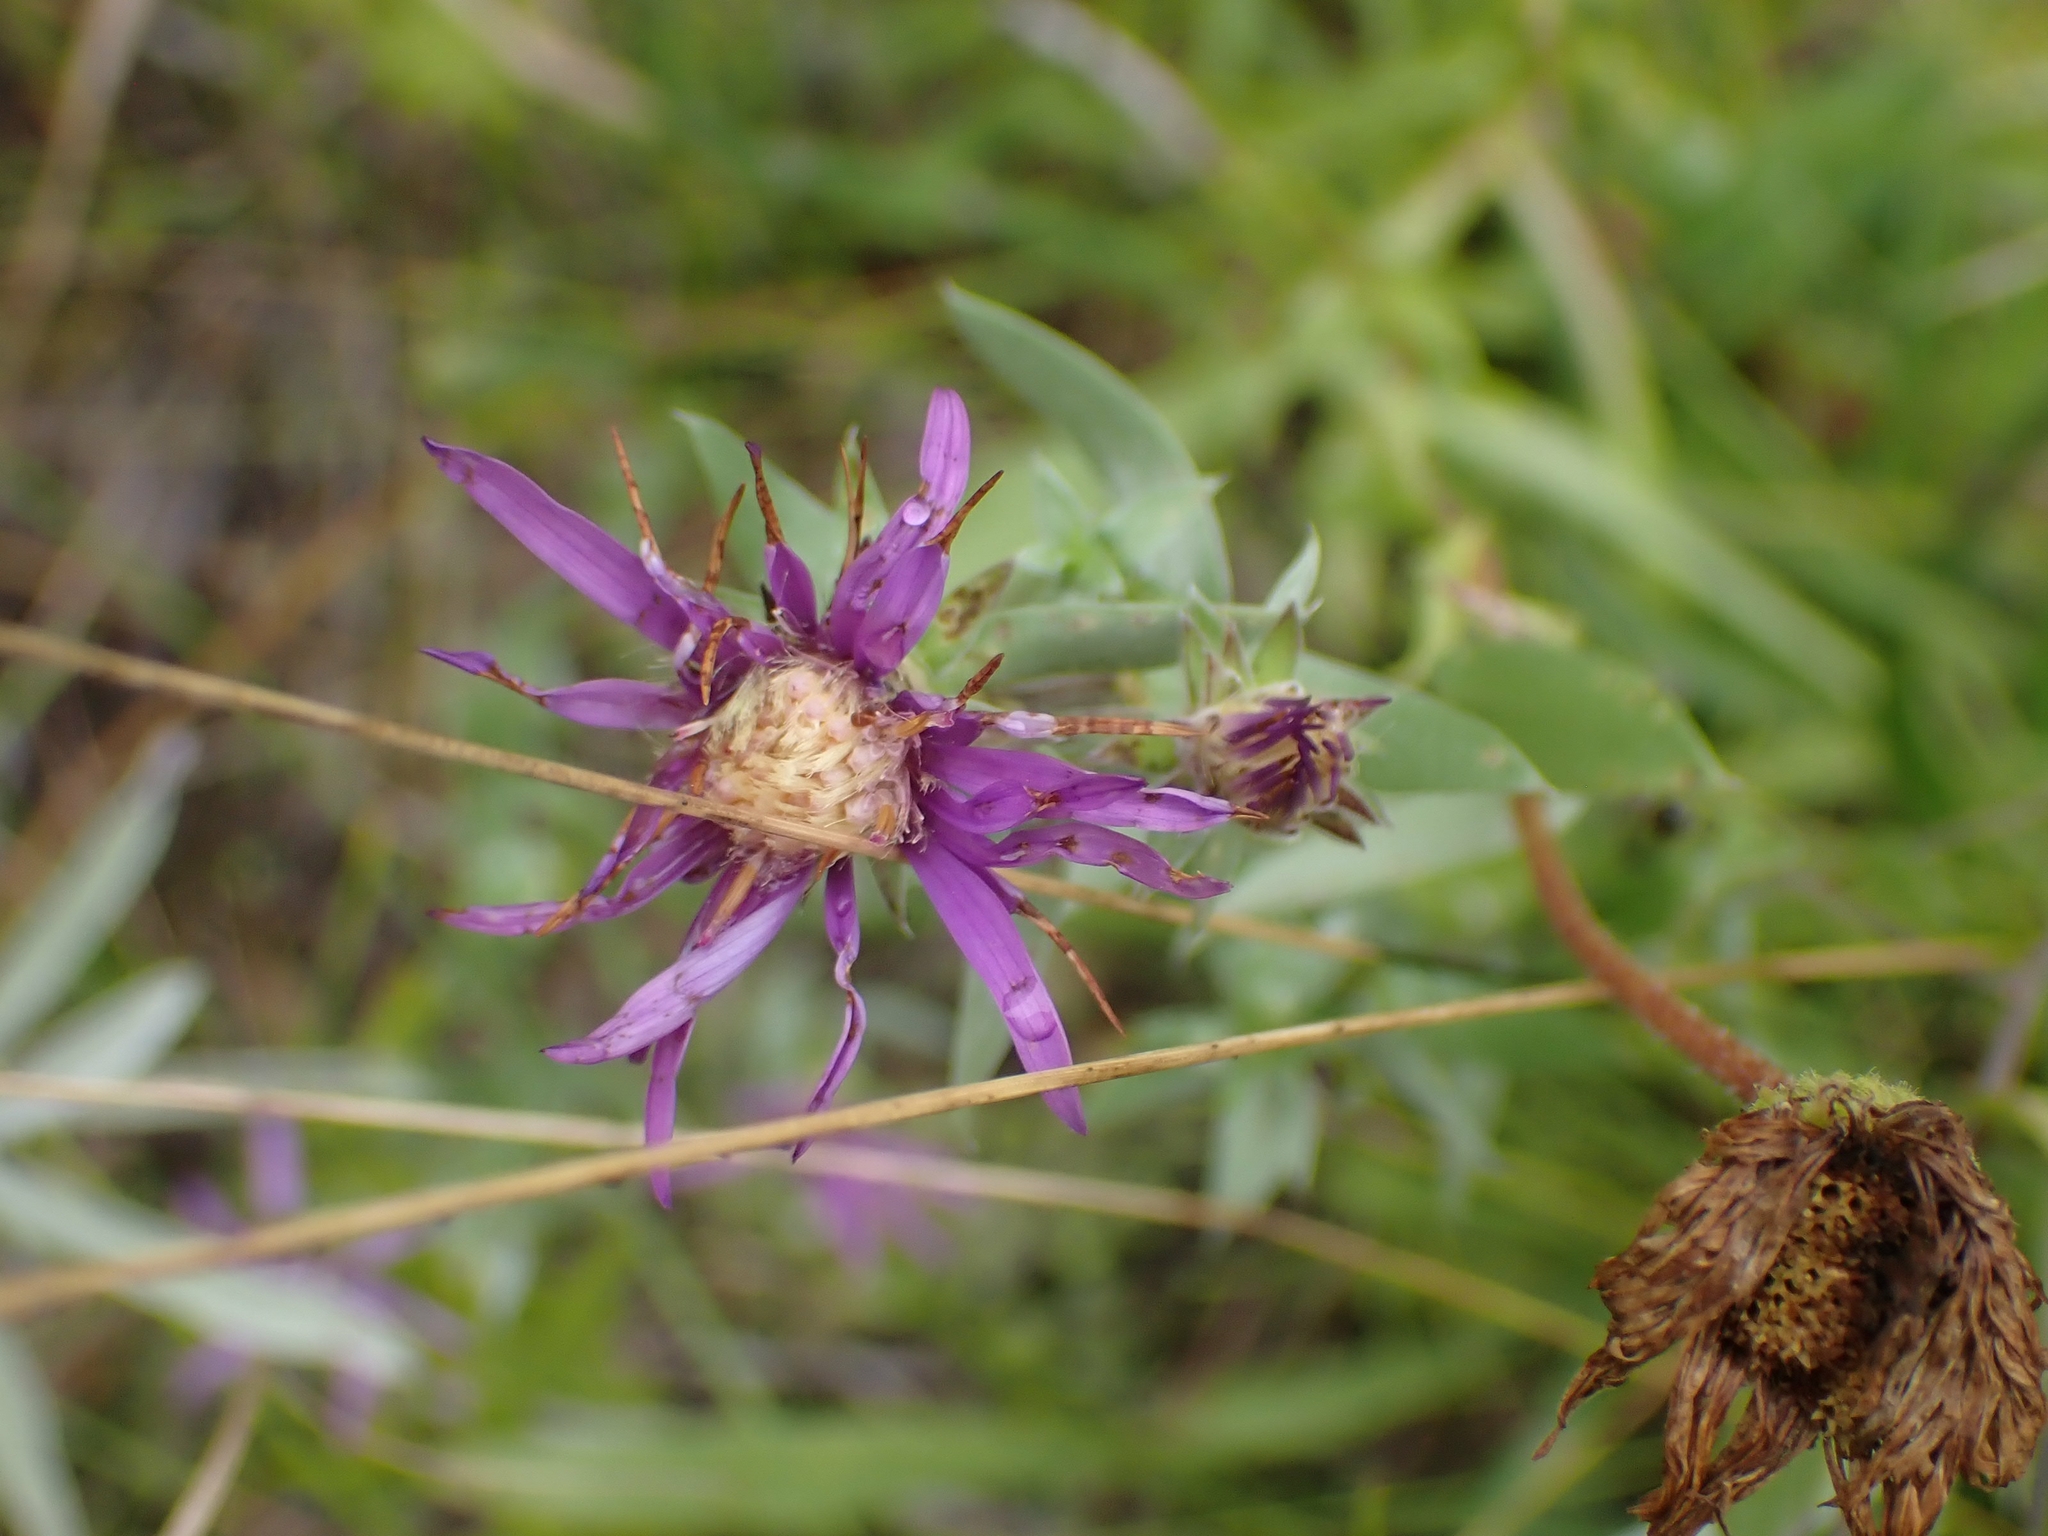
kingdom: Plantae
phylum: Tracheophyta
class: Magnoliopsida
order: Asterales
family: Asteraceae
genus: Symphyotrichum
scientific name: Symphyotrichum sericeum
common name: Silky aster
